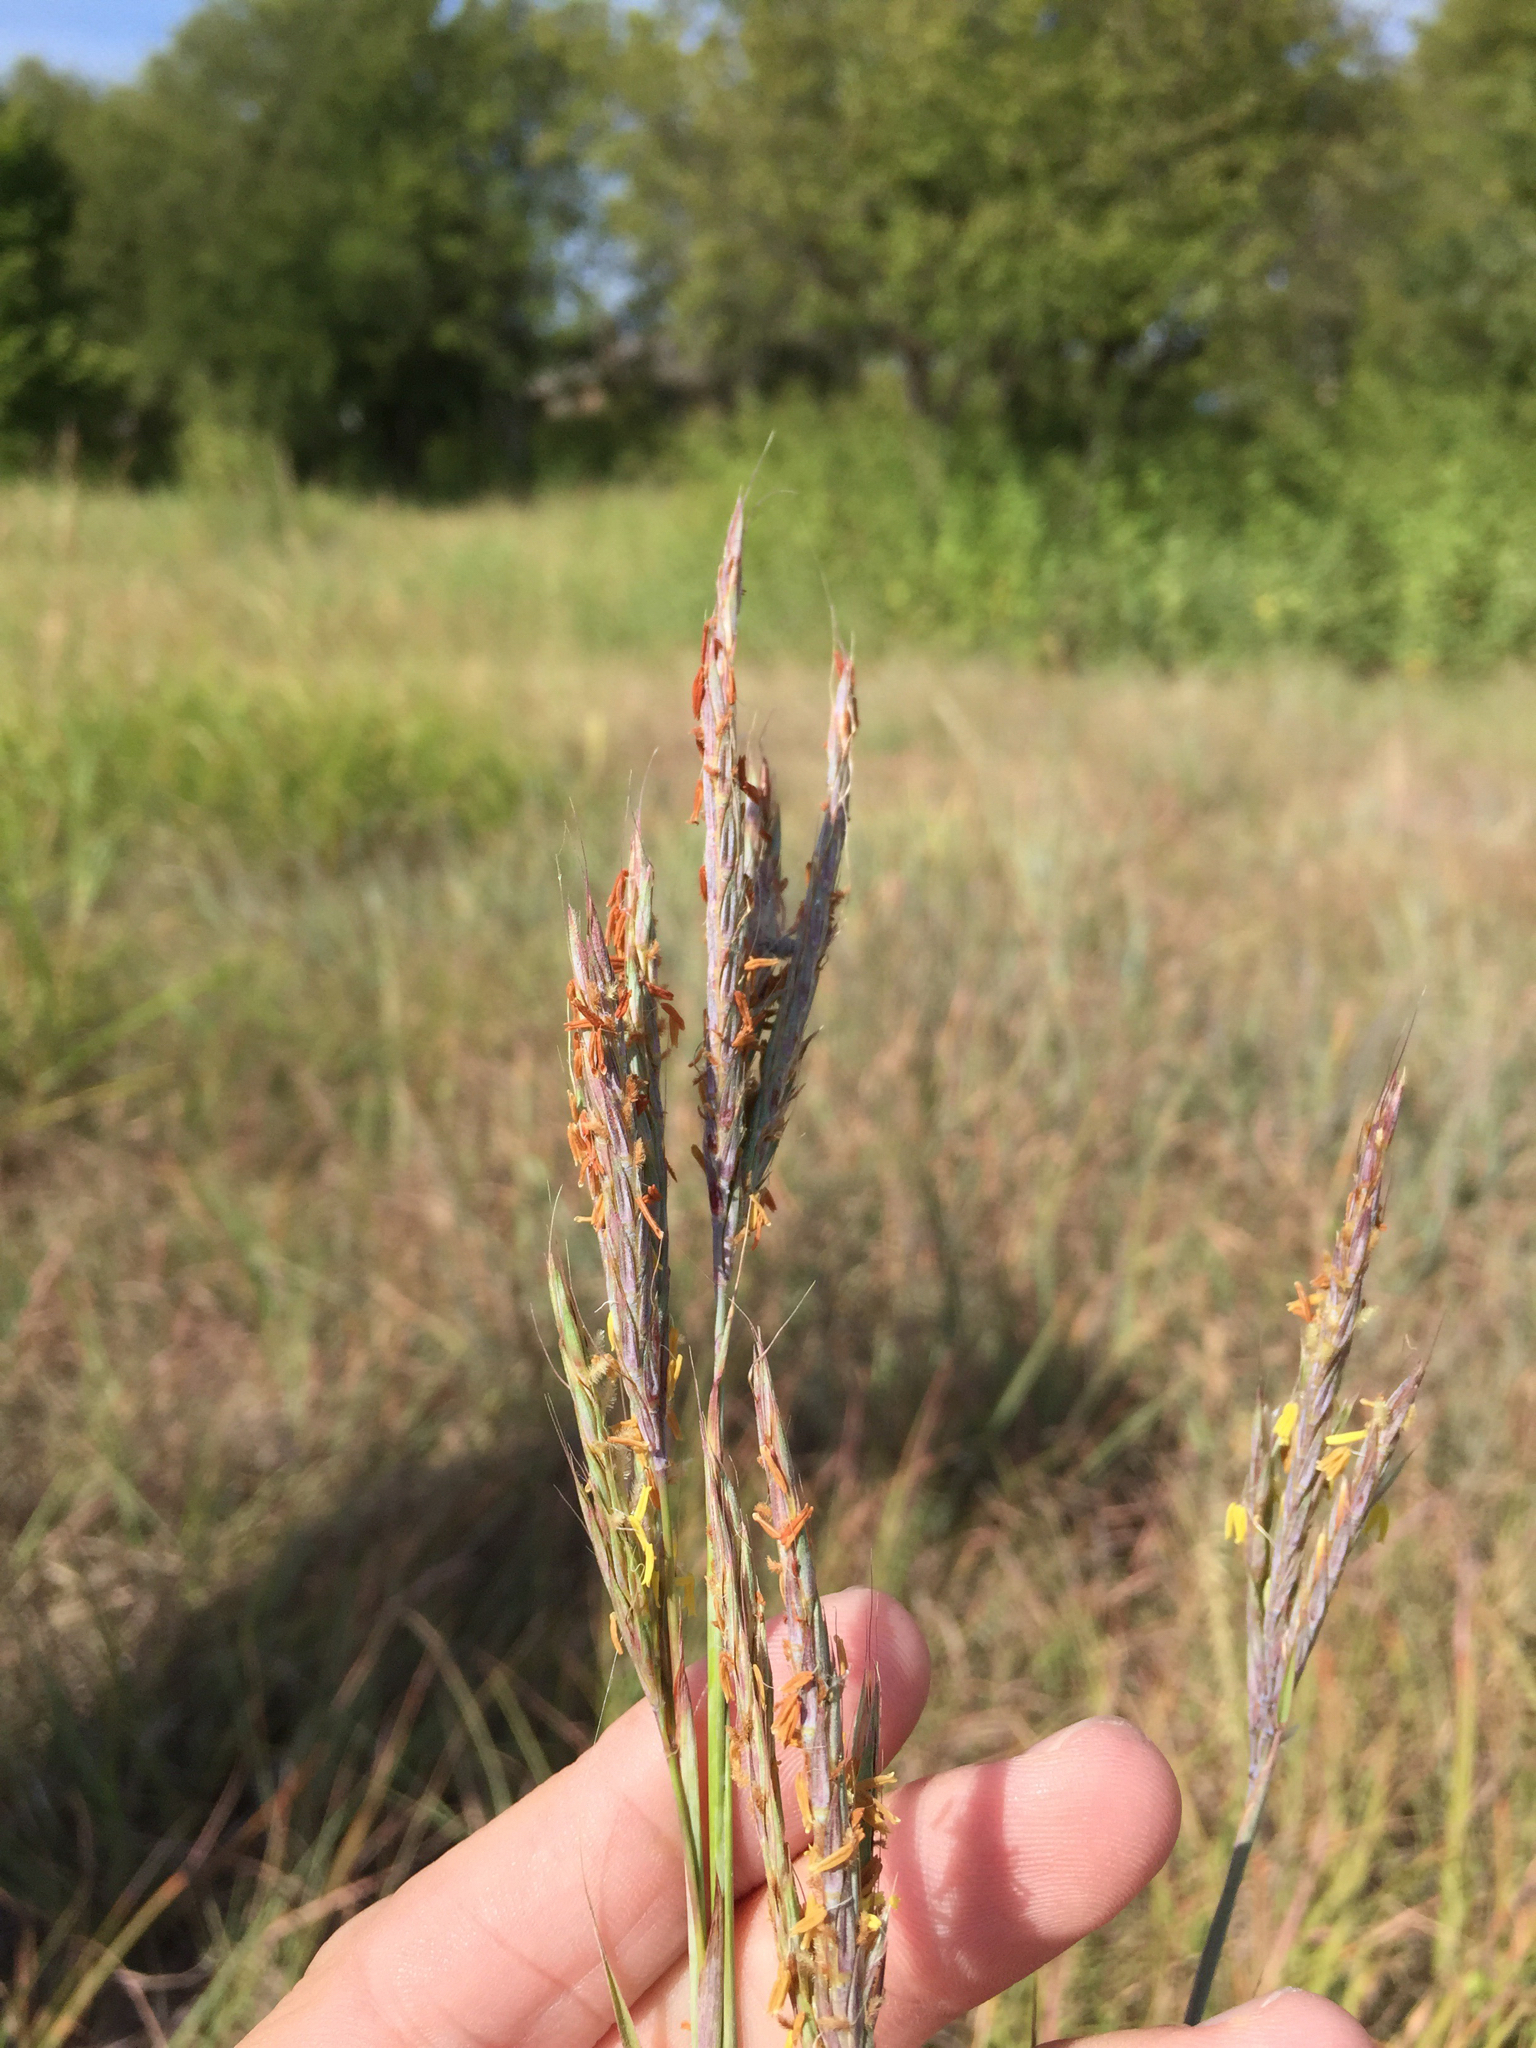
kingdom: Plantae
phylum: Tracheophyta
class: Liliopsida
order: Poales
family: Poaceae
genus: Andropogon
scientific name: Andropogon gerardi
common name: Big bluestem
